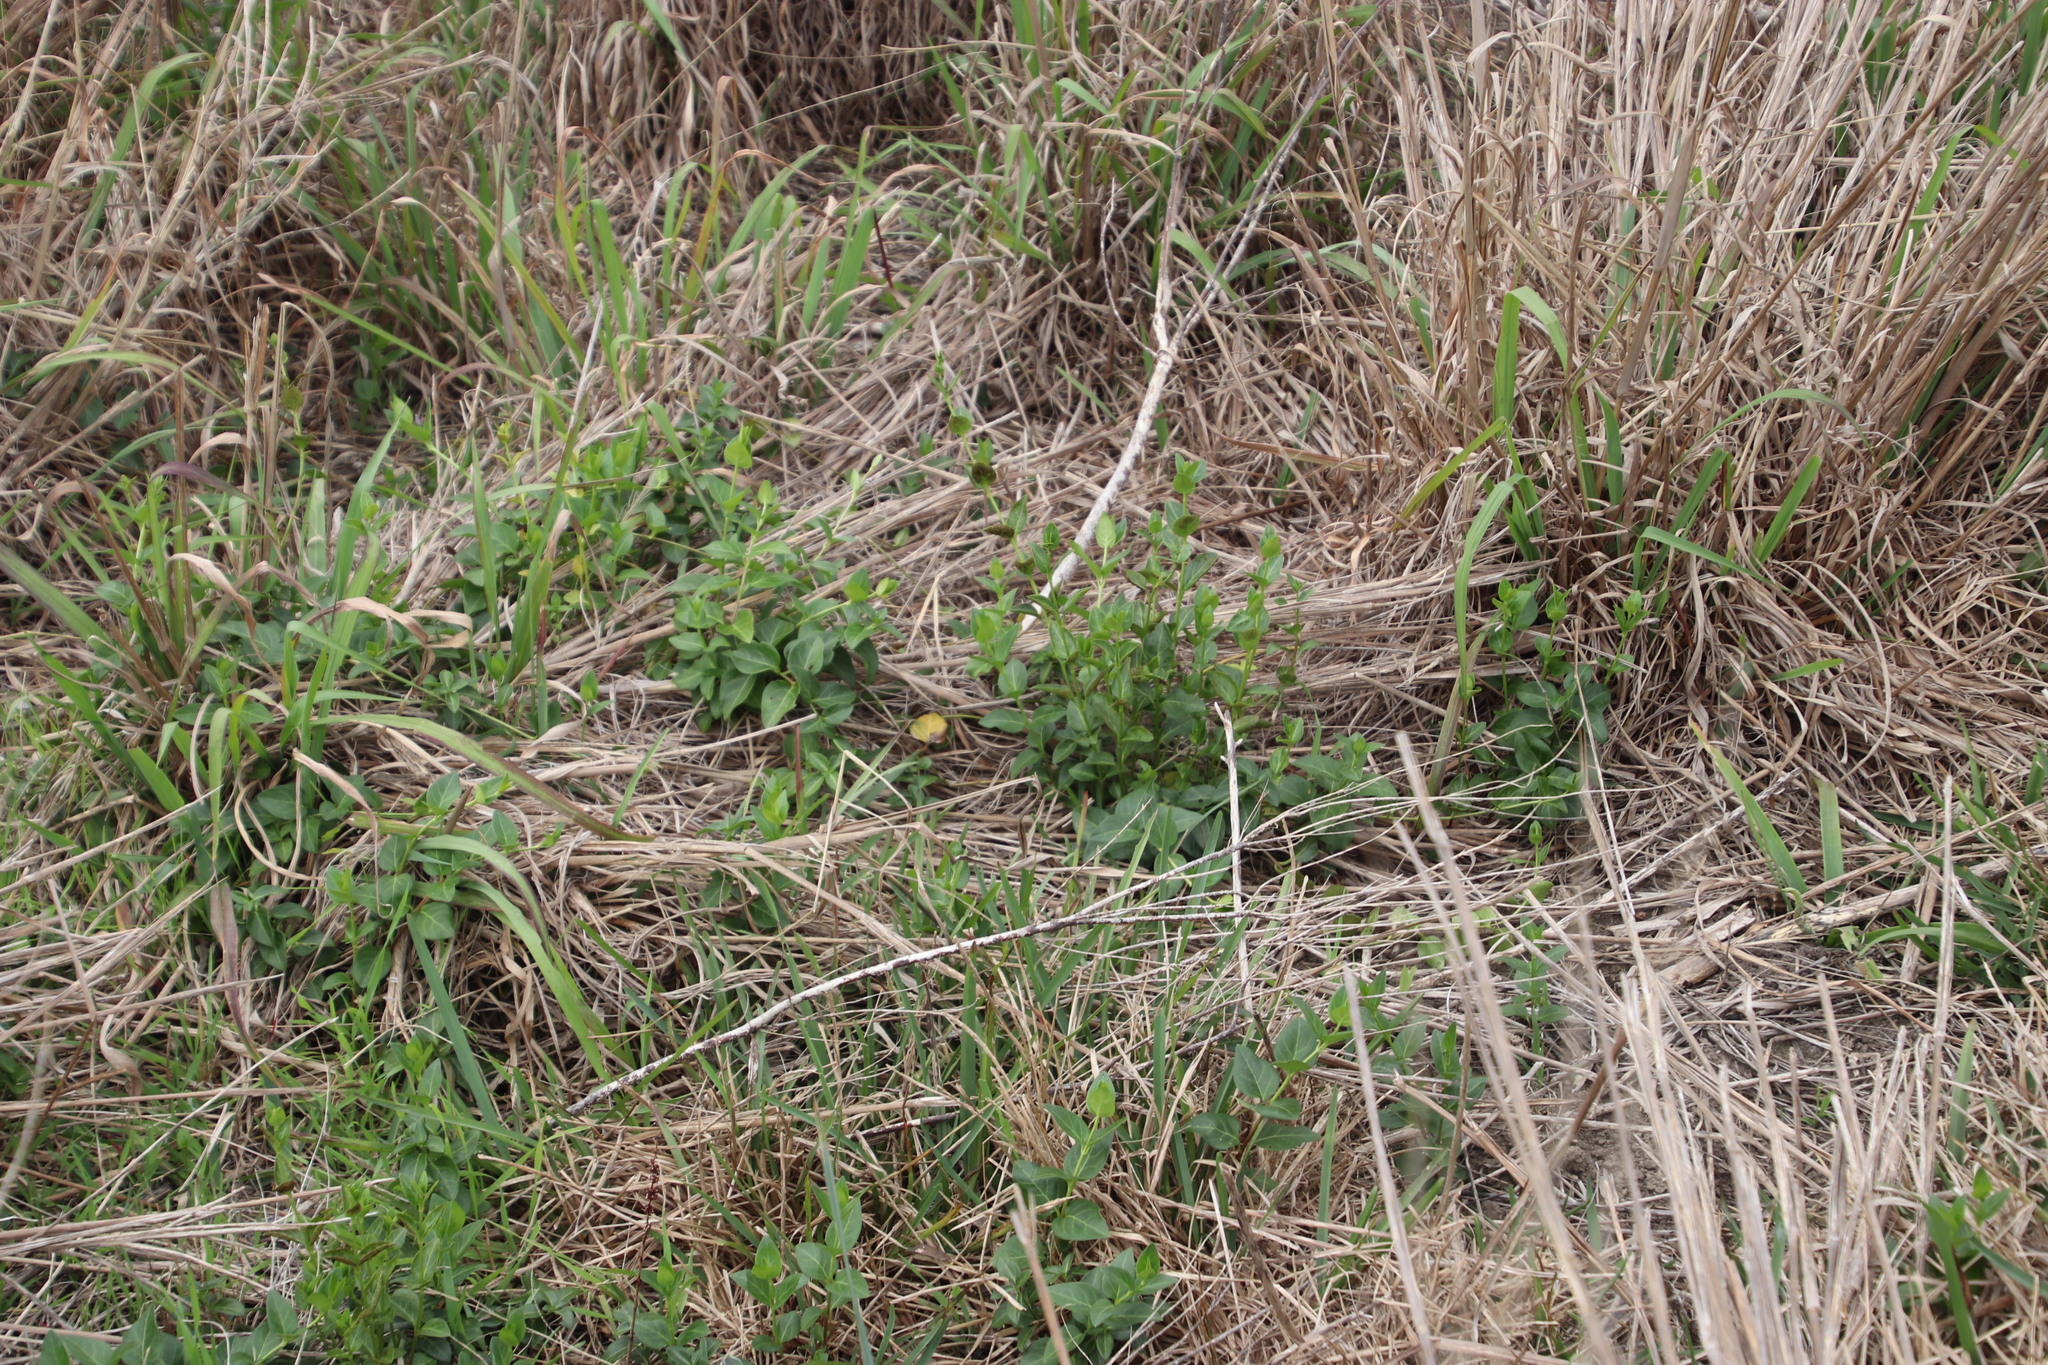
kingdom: Plantae
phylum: Tracheophyta
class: Magnoliopsida
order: Gentianales
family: Apocynaceae
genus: Vinca
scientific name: Vinca major
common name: Greater periwinkle
